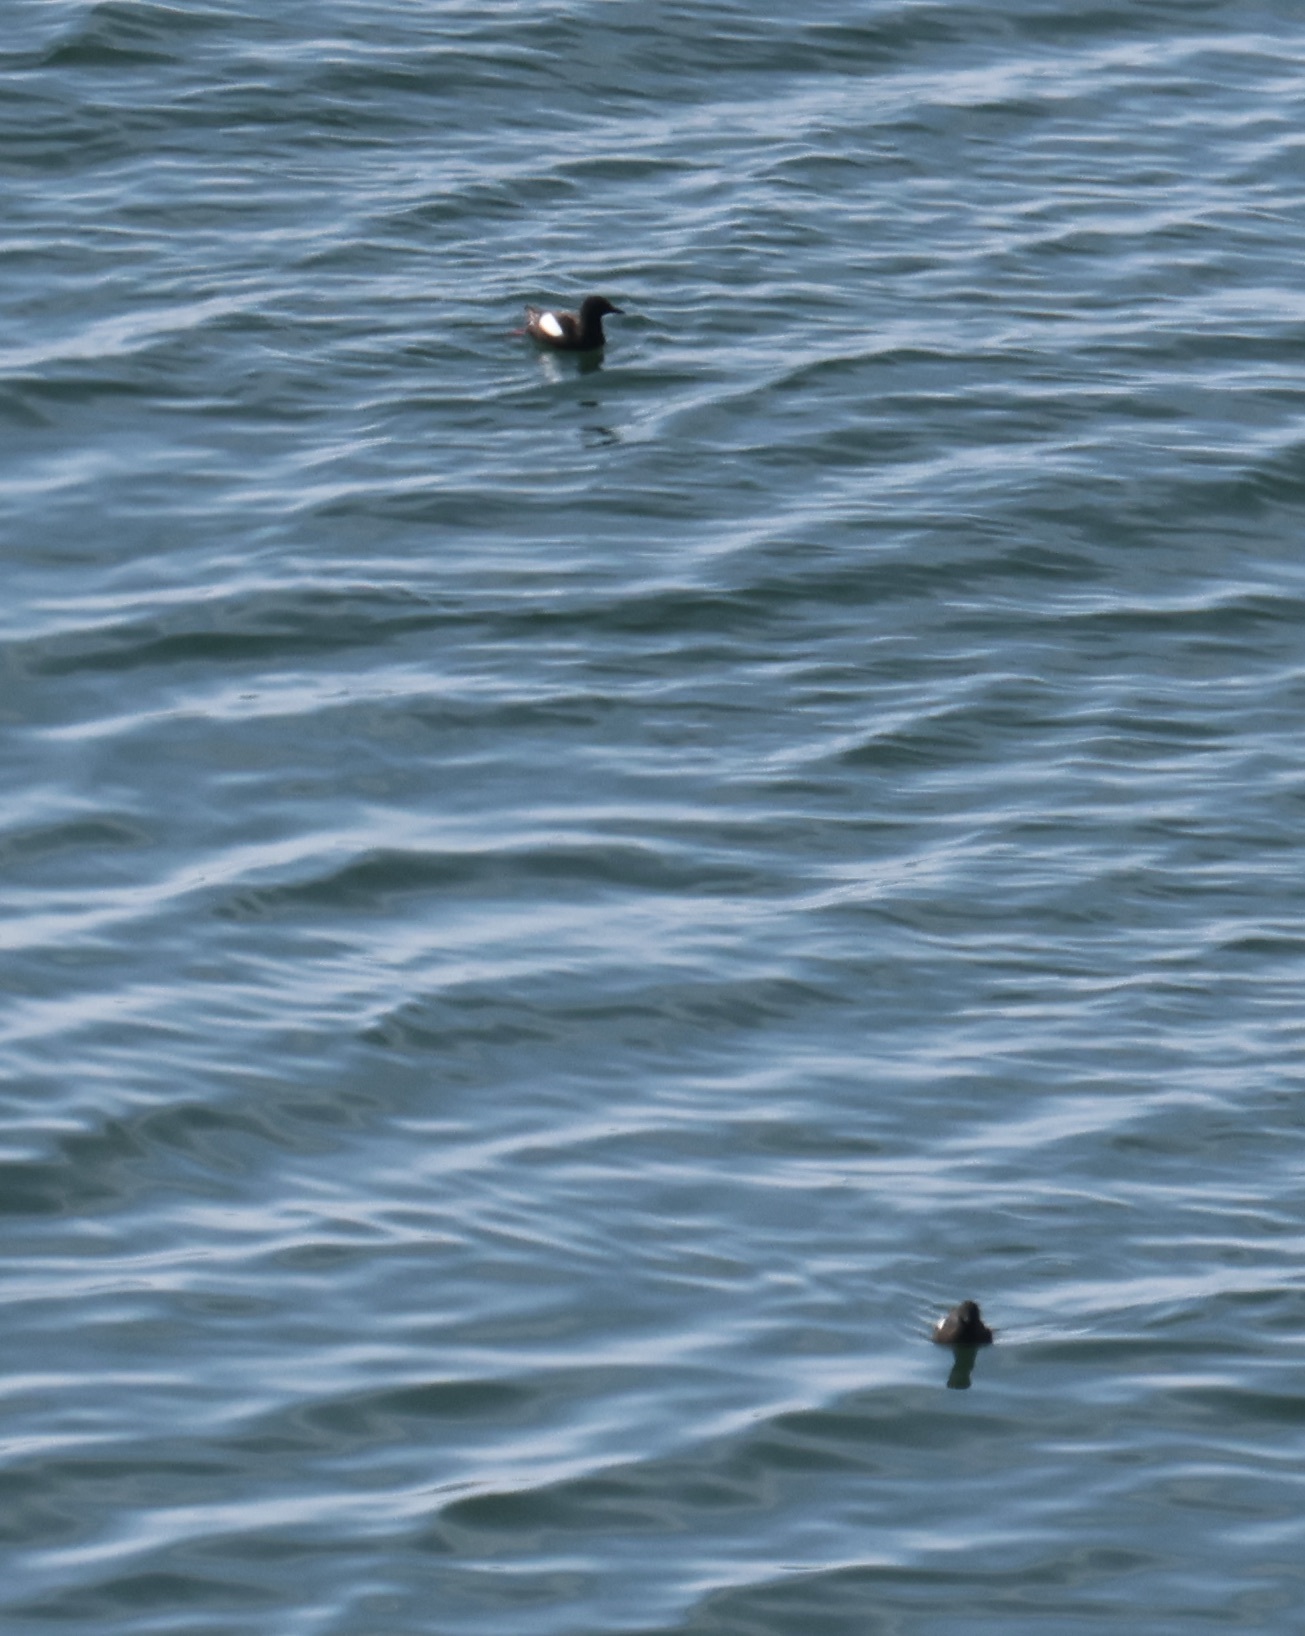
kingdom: Animalia
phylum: Chordata
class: Aves
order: Charadriiformes
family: Alcidae
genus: Cepphus
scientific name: Cepphus grylle
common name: Black guillemot
